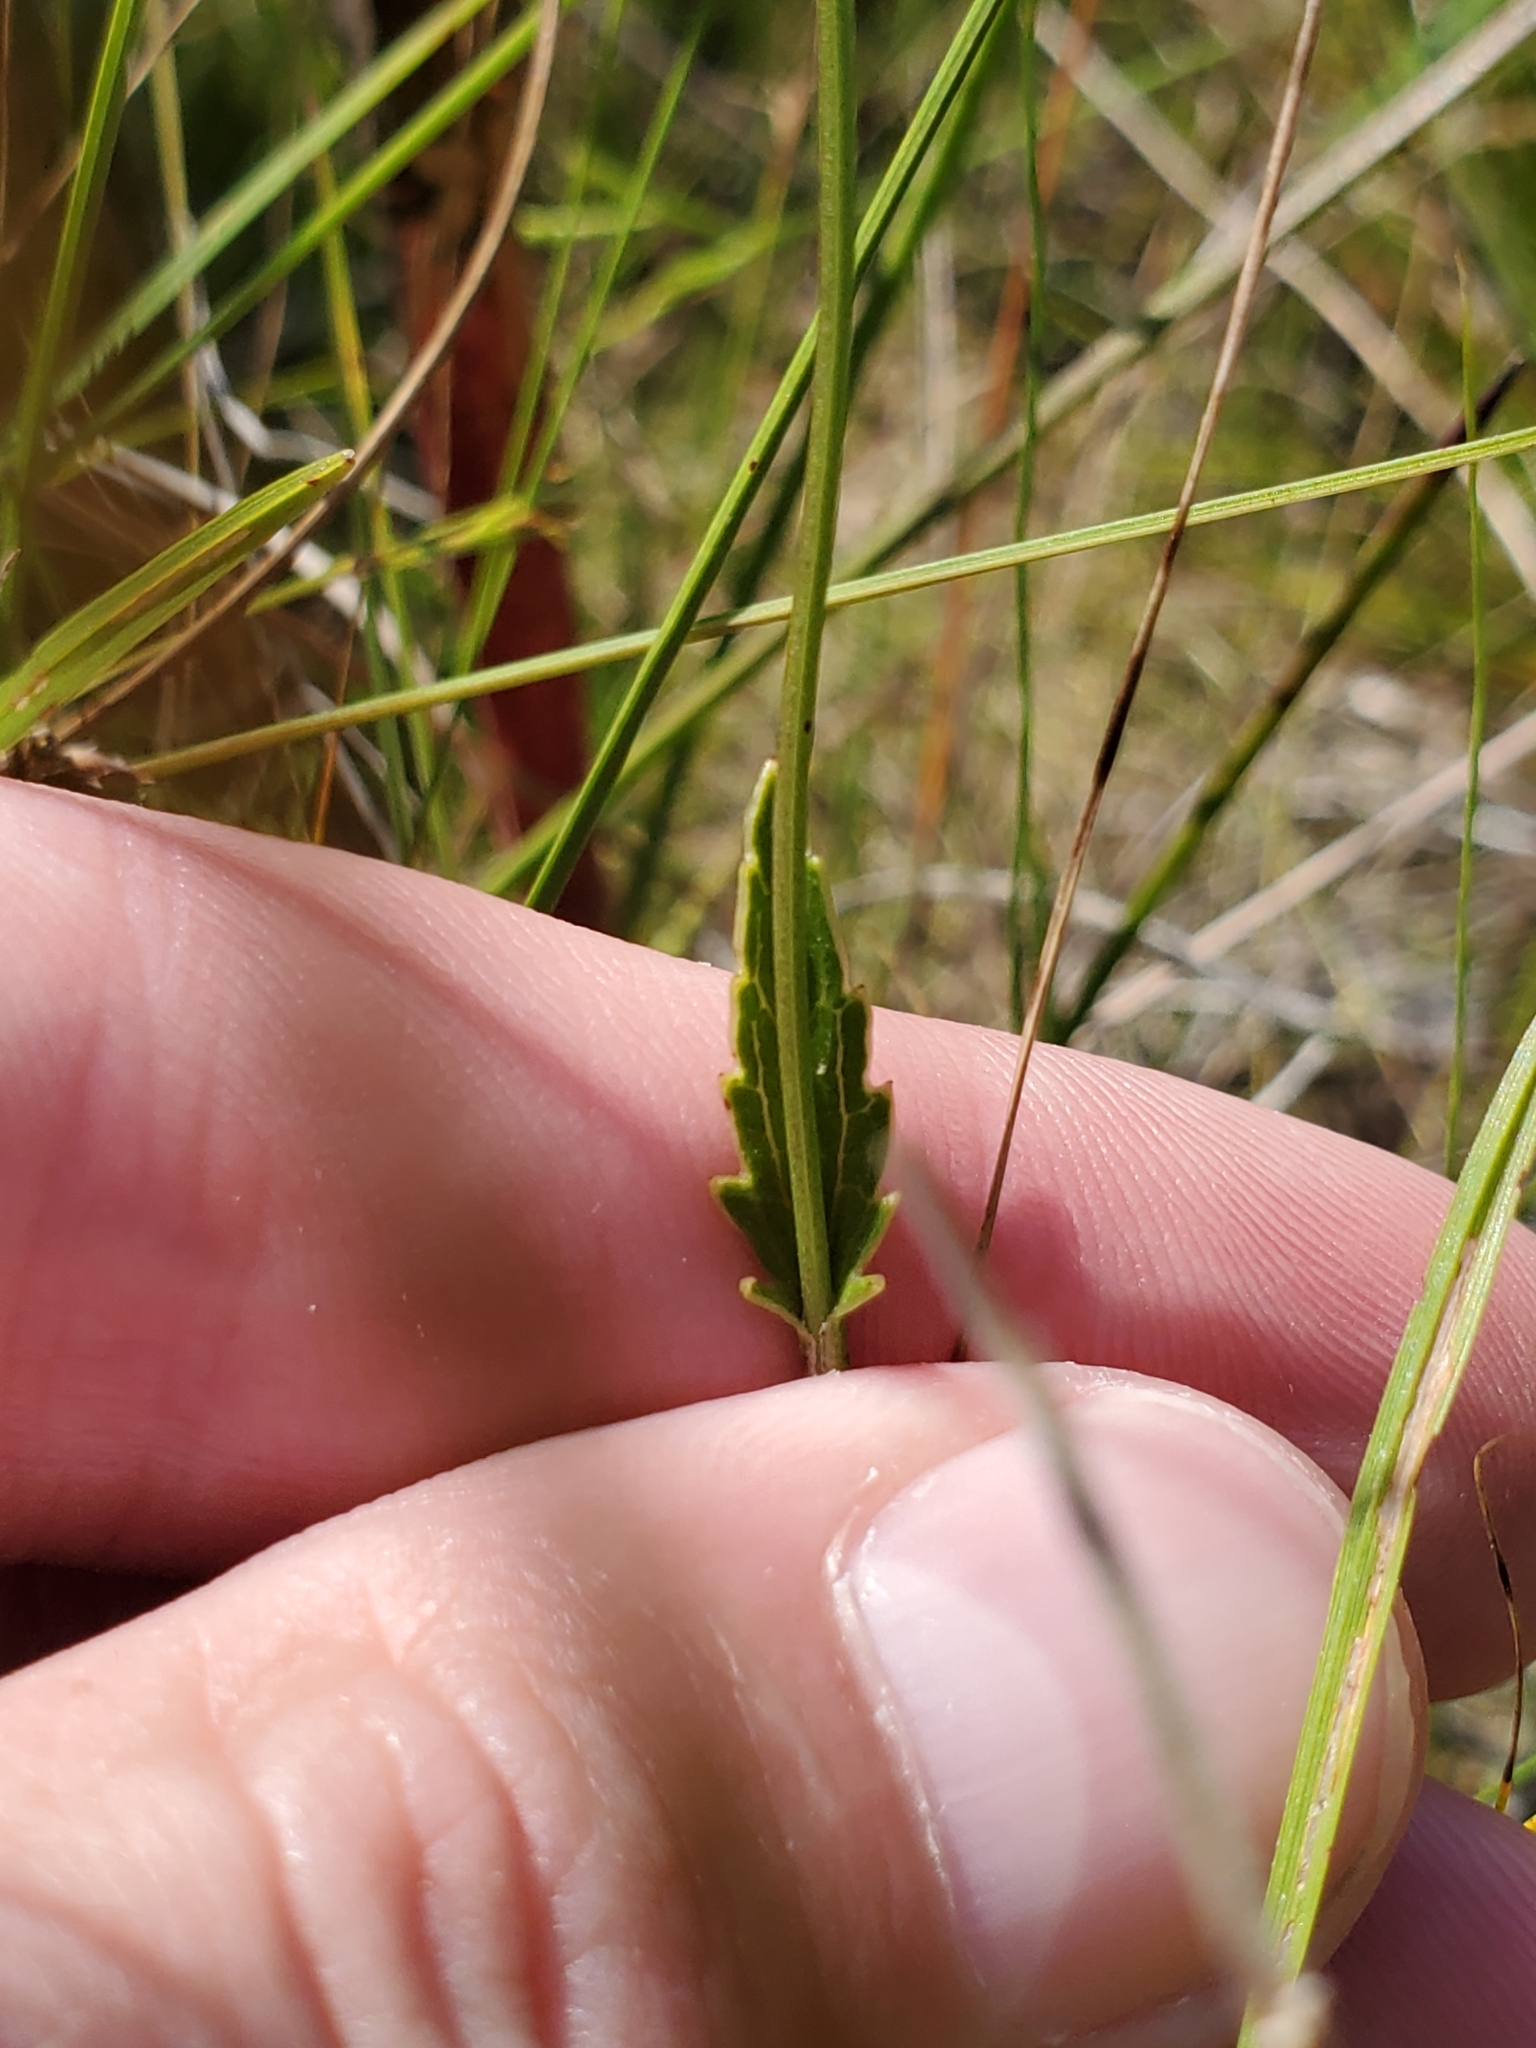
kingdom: Plantae
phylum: Tracheophyta
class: Magnoliopsida
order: Apiales
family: Apiaceae
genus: Eryngium
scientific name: Eryngium integrifolium
